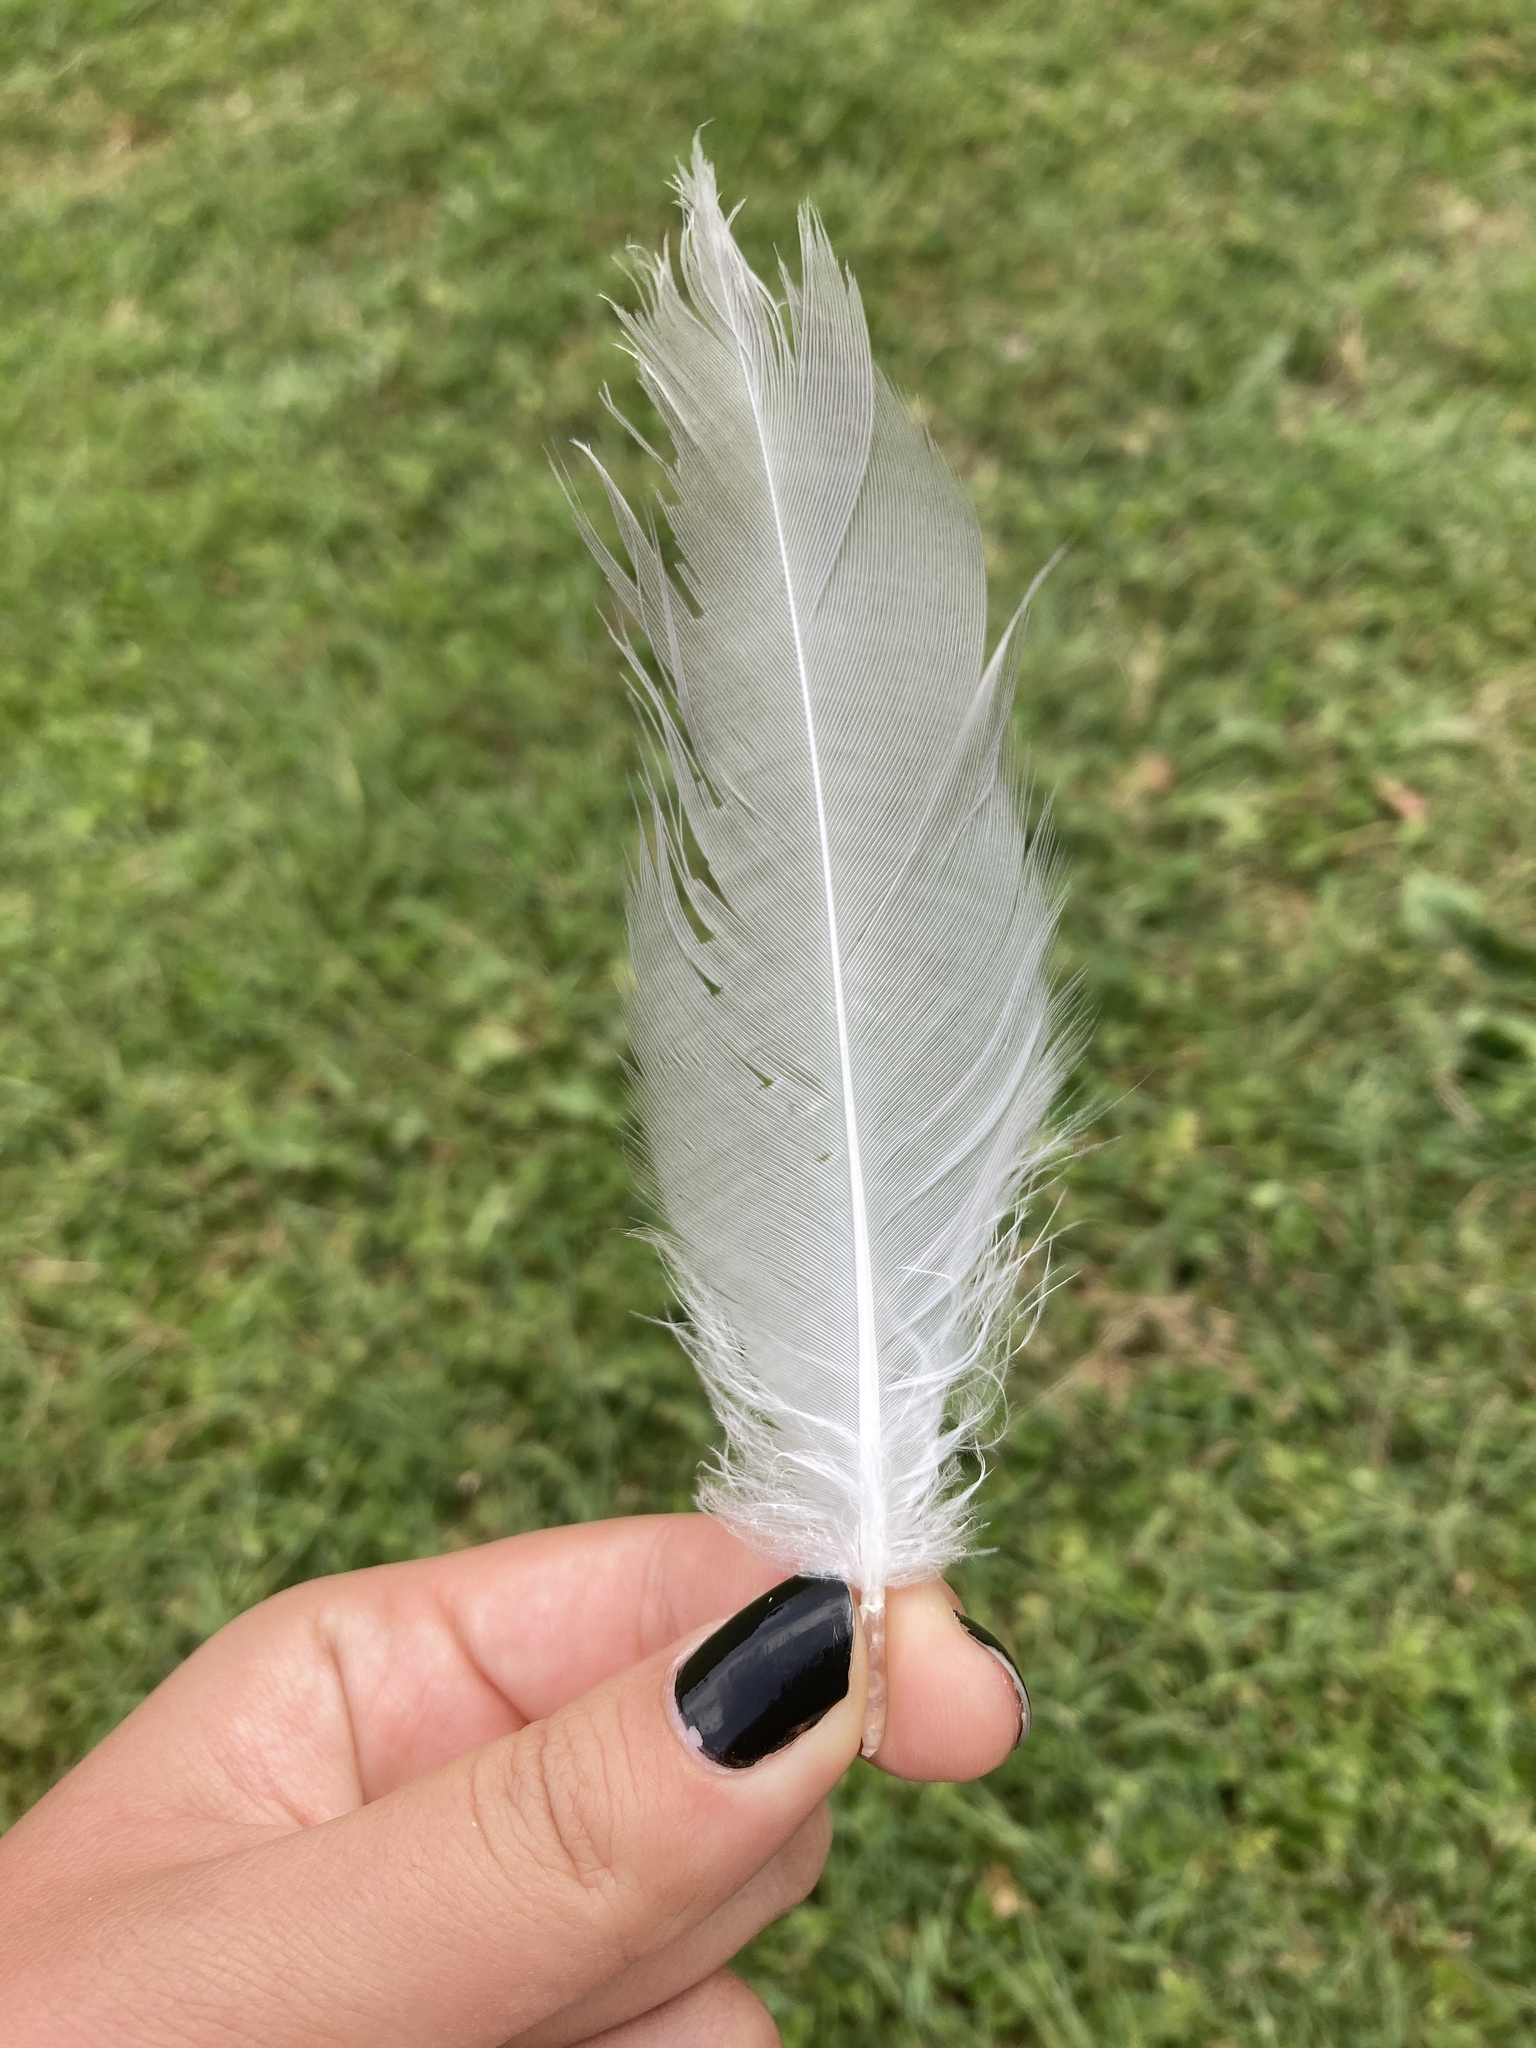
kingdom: Animalia
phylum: Chordata
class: Aves
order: Charadriiformes
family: Laridae
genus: Larus
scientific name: Larus michahellis
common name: Yellow-legged gull
